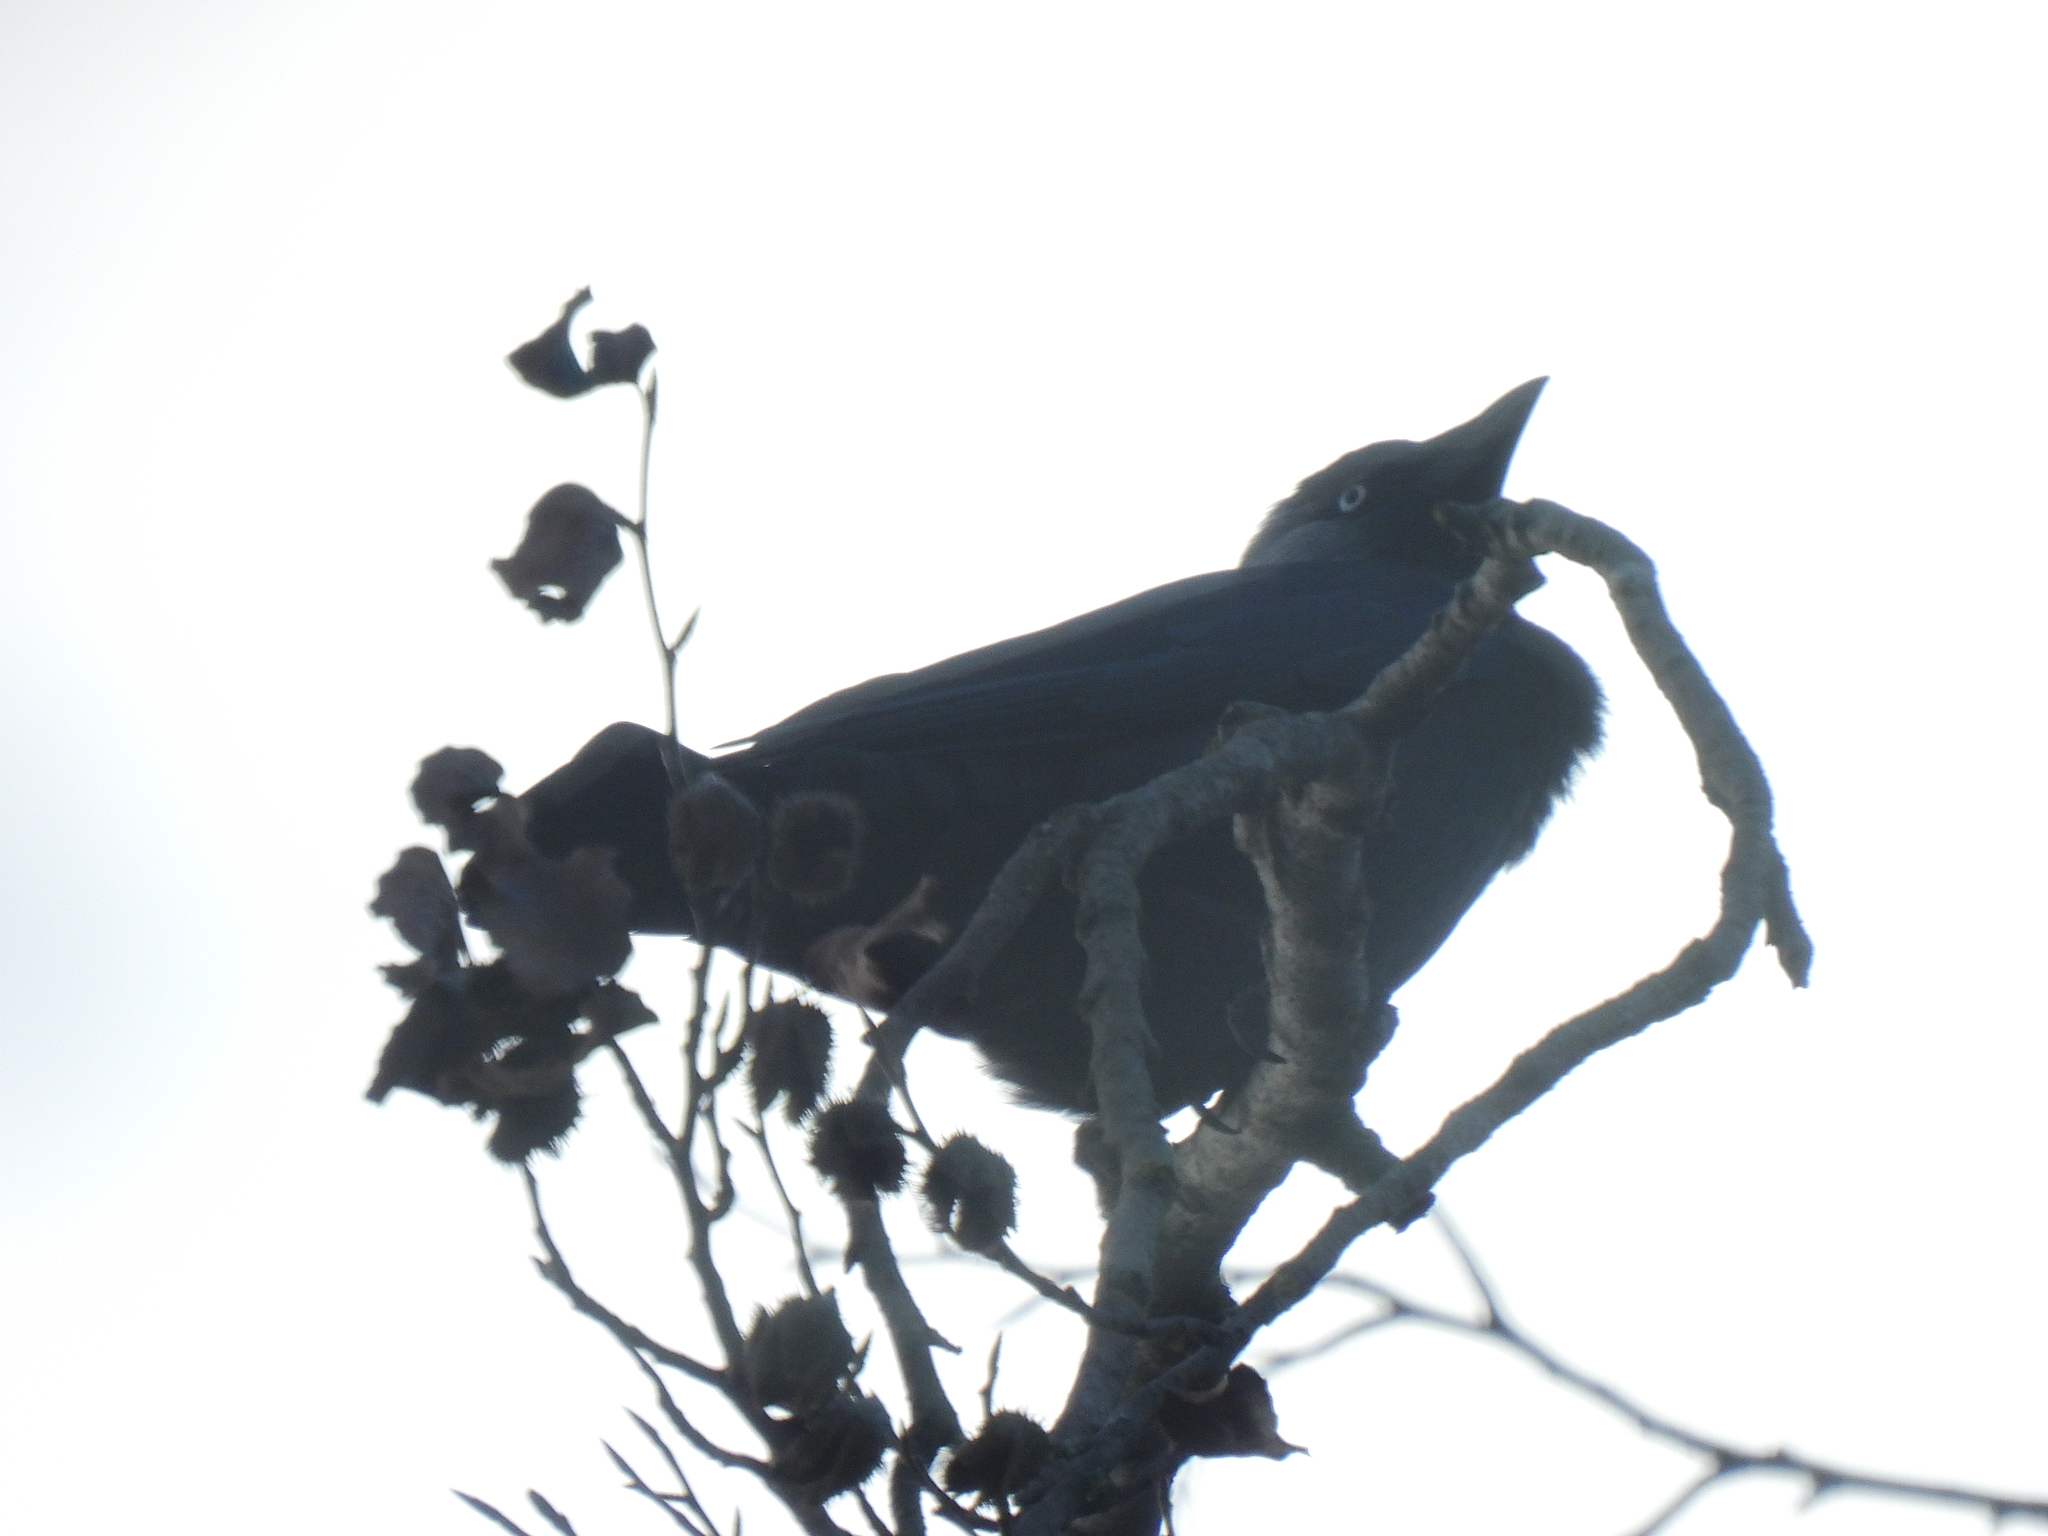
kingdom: Animalia
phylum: Chordata
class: Aves
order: Passeriformes
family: Corvidae
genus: Coloeus
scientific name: Coloeus monedula
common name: Western jackdaw
